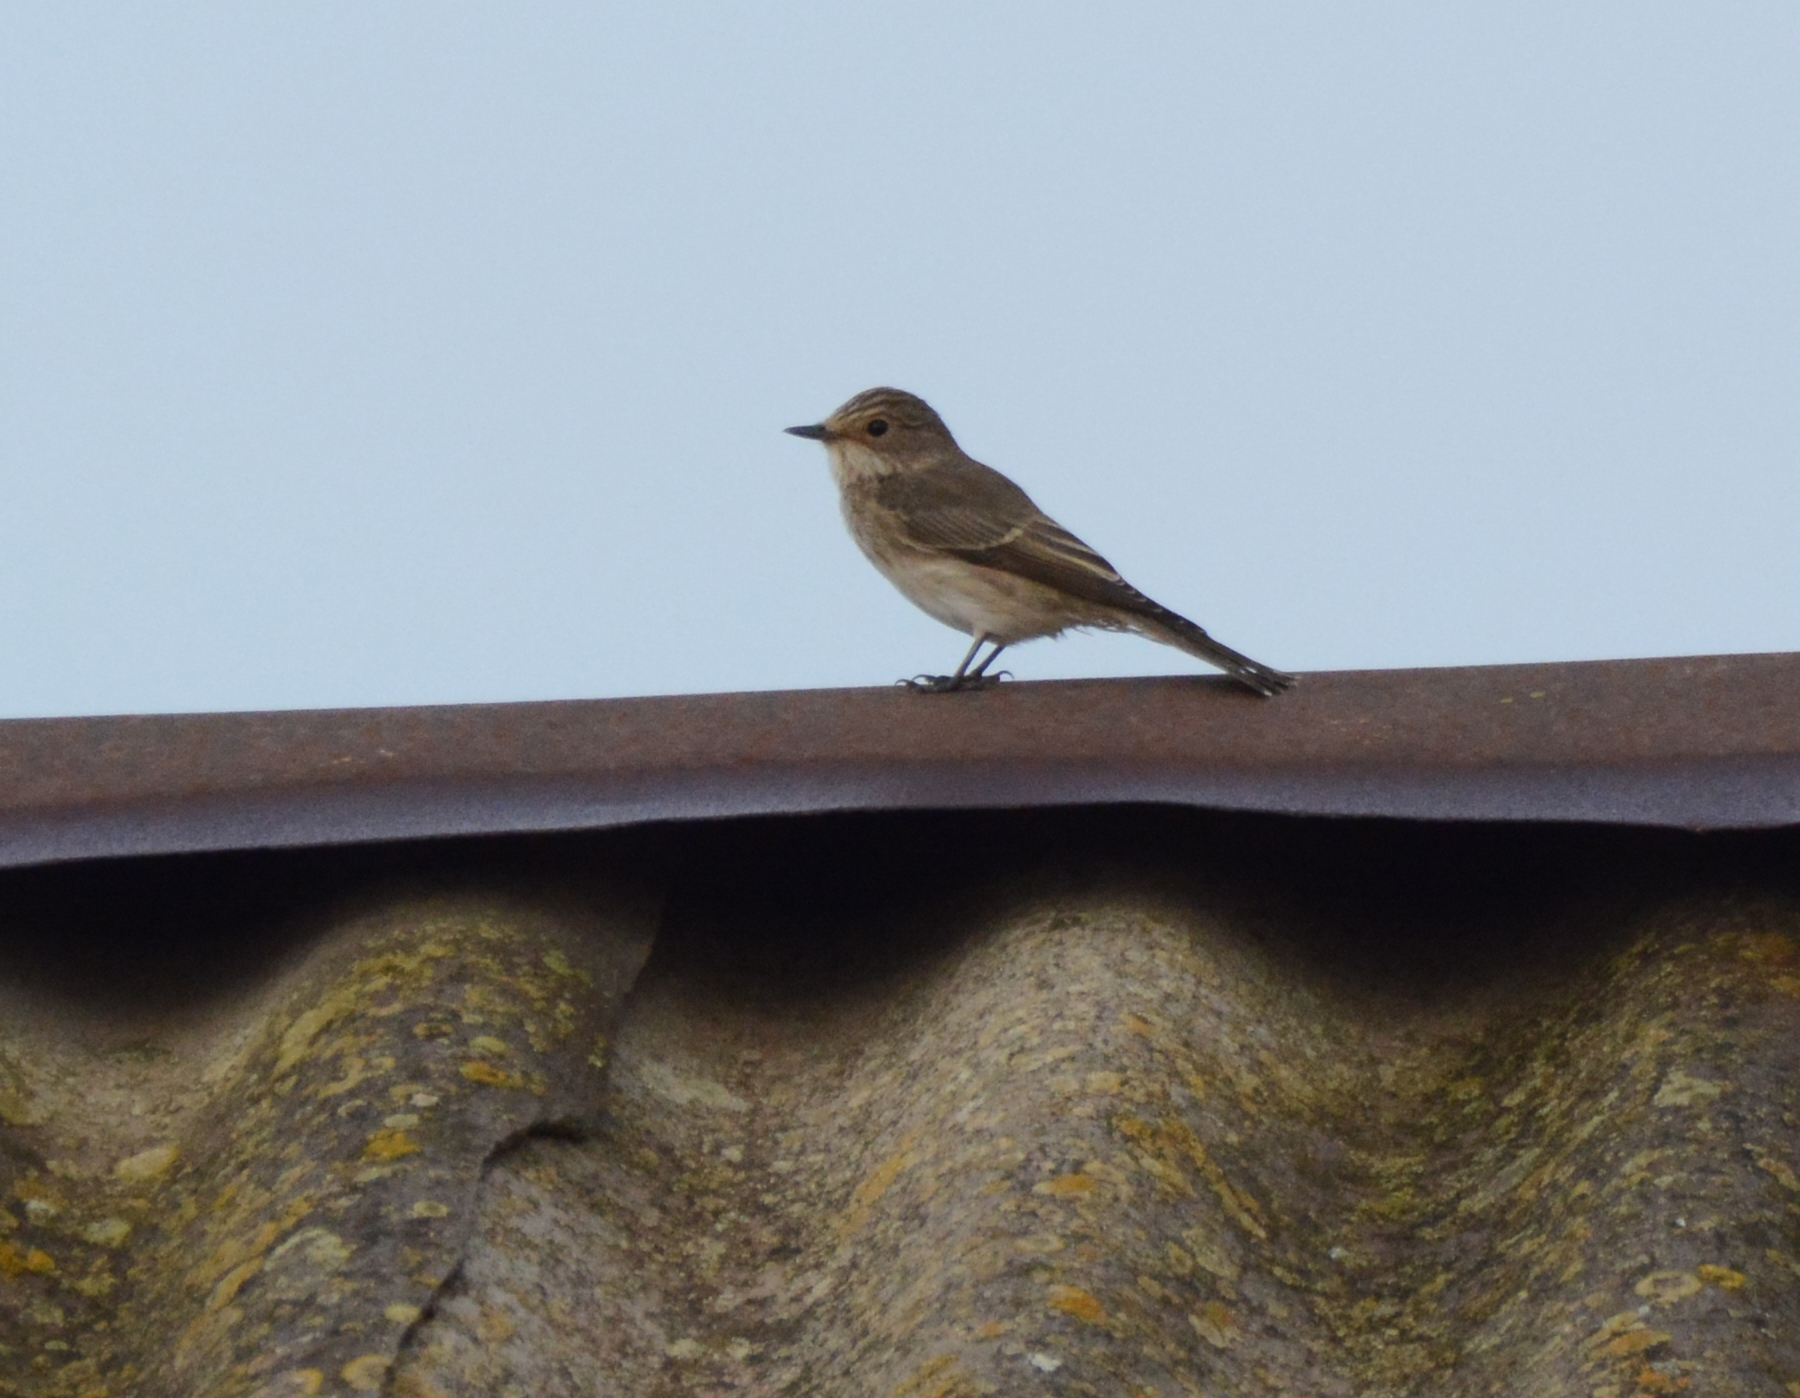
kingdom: Animalia
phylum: Chordata
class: Aves
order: Passeriformes
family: Muscicapidae
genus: Muscicapa
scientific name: Muscicapa striata
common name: Spotted flycatcher
